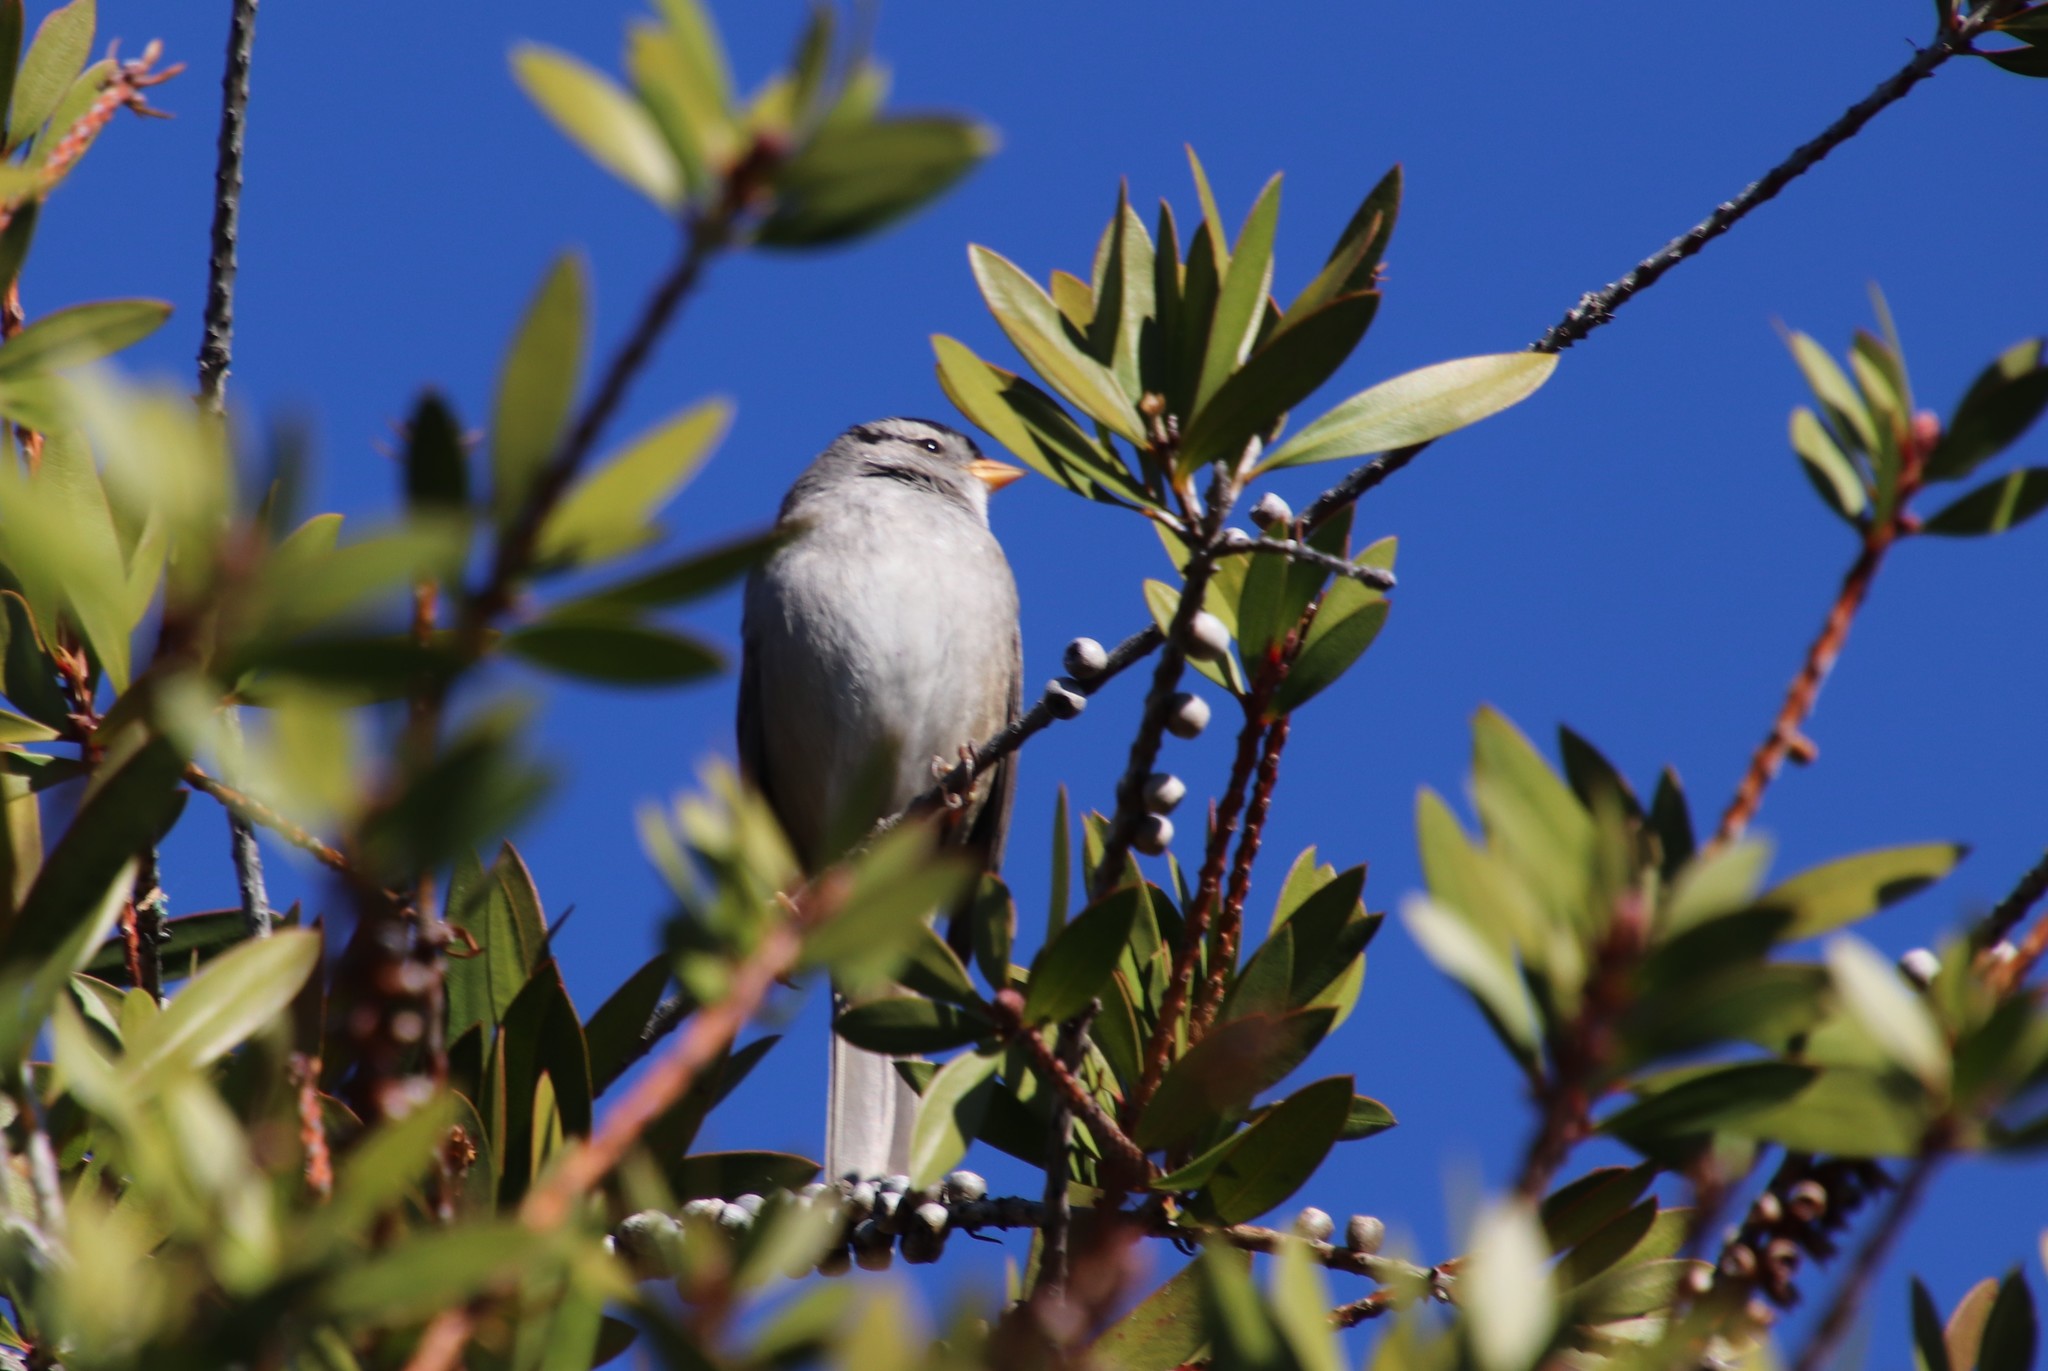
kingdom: Animalia
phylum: Chordata
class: Aves
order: Passeriformes
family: Passerellidae
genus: Zonotrichia
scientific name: Zonotrichia leucophrys
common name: White-crowned sparrow
